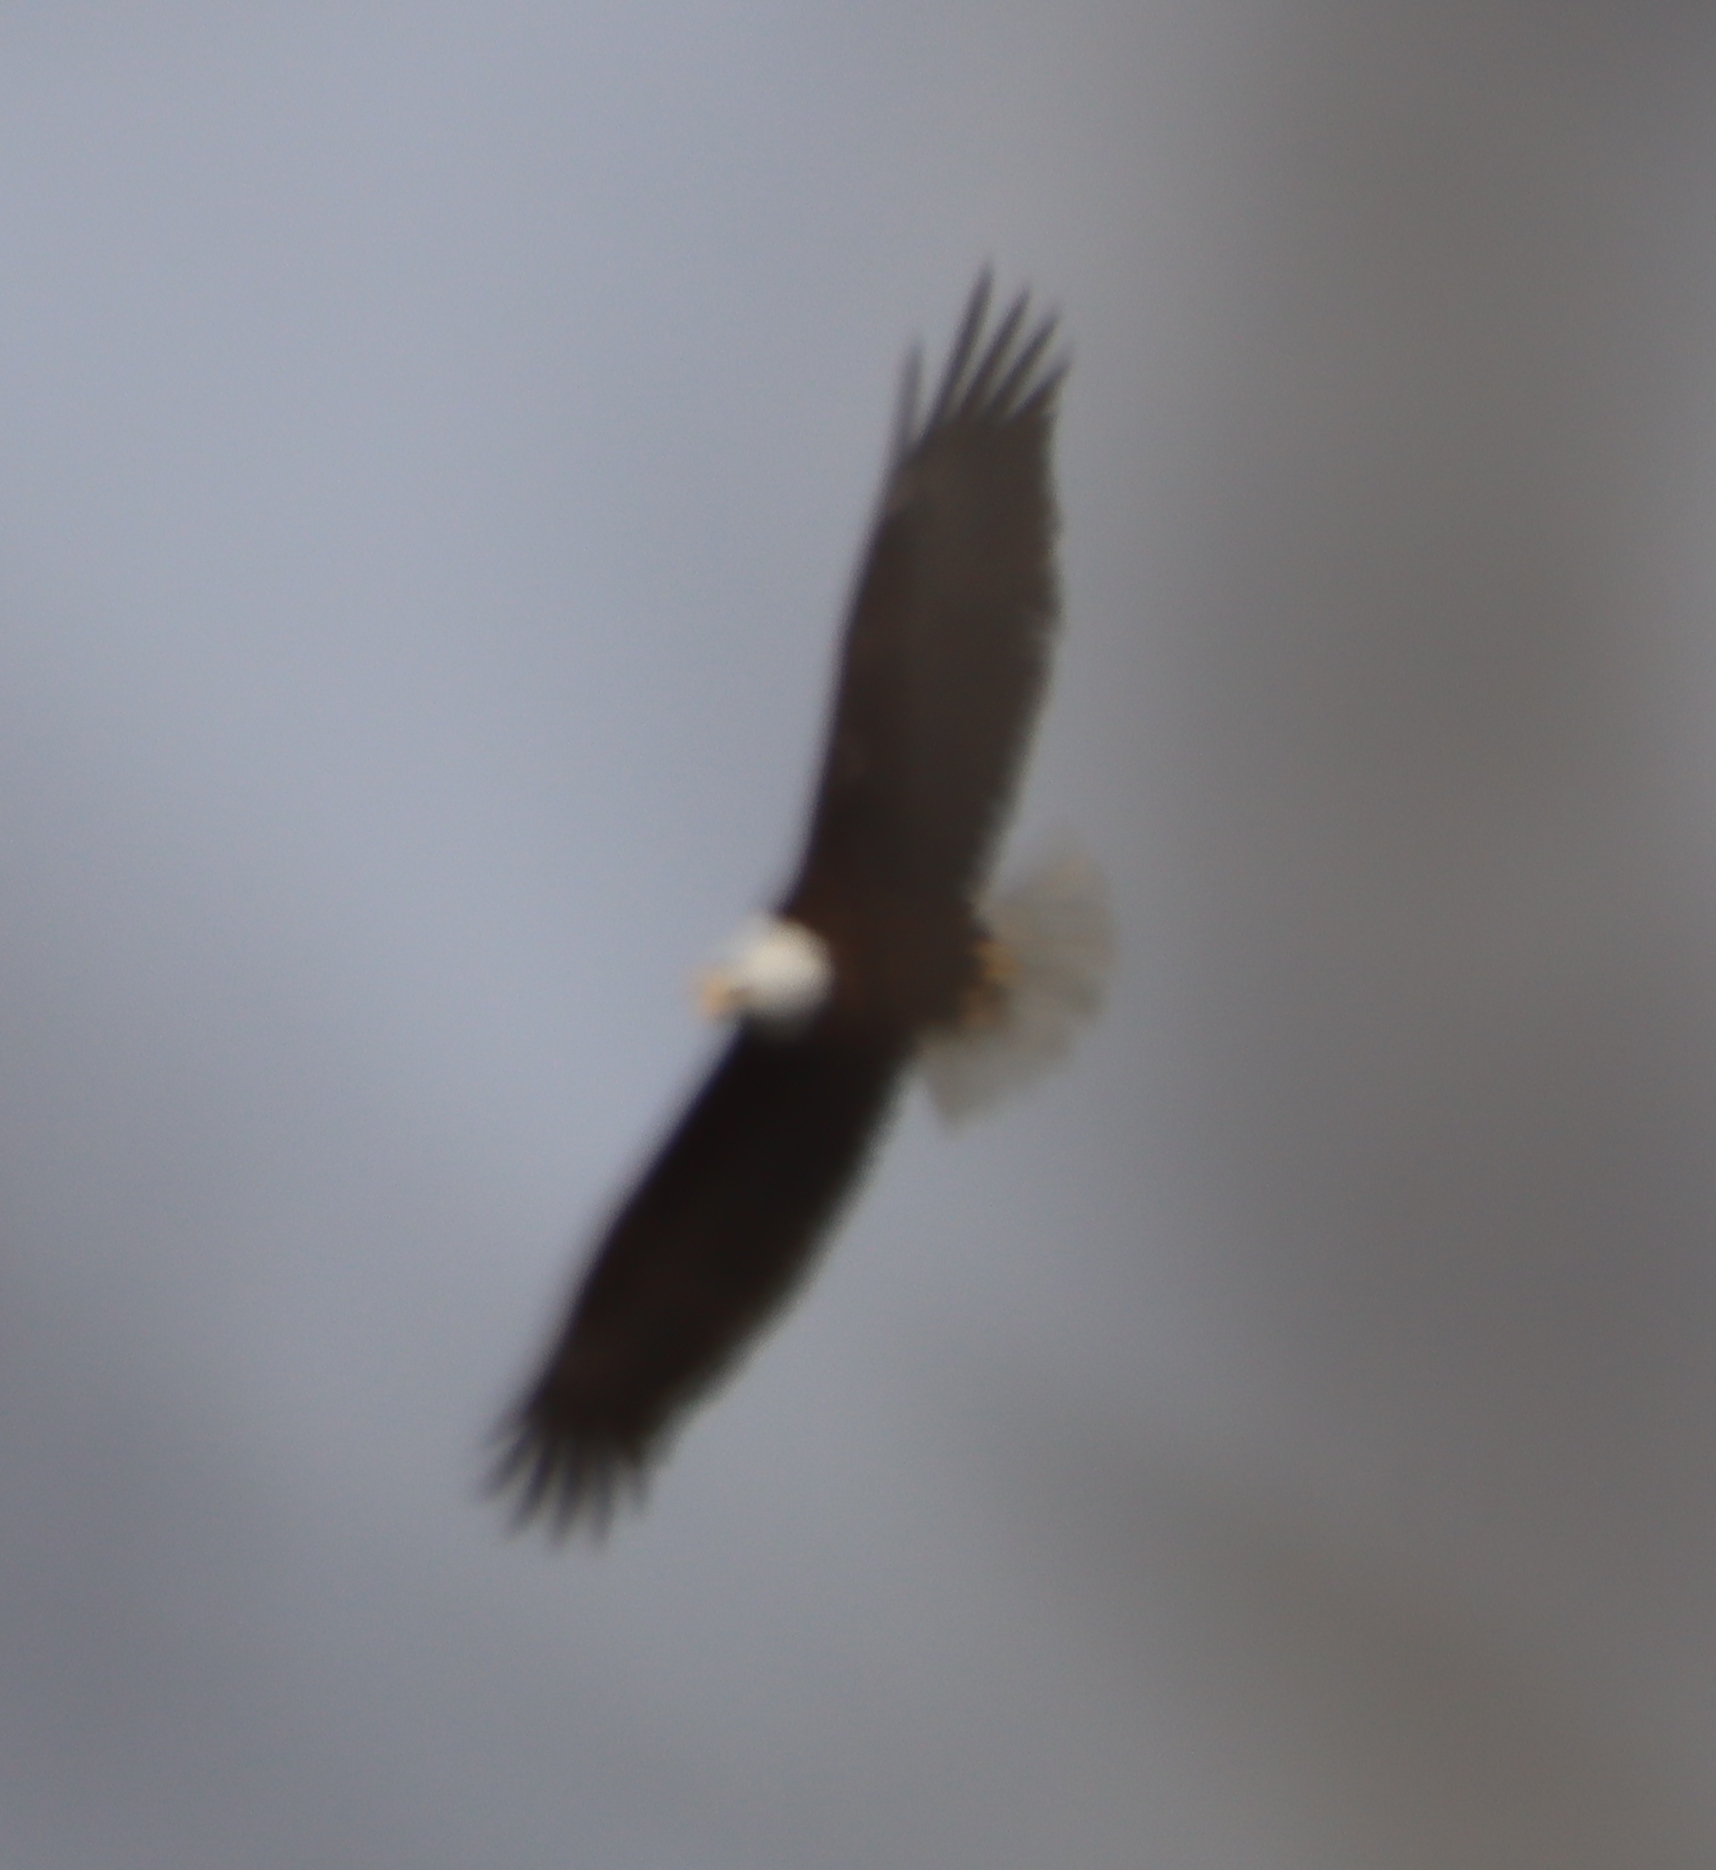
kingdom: Animalia
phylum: Chordata
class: Aves
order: Accipitriformes
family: Accipitridae
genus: Haliaeetus
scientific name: Haliaeetus leucocephalus
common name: Bald eagle
